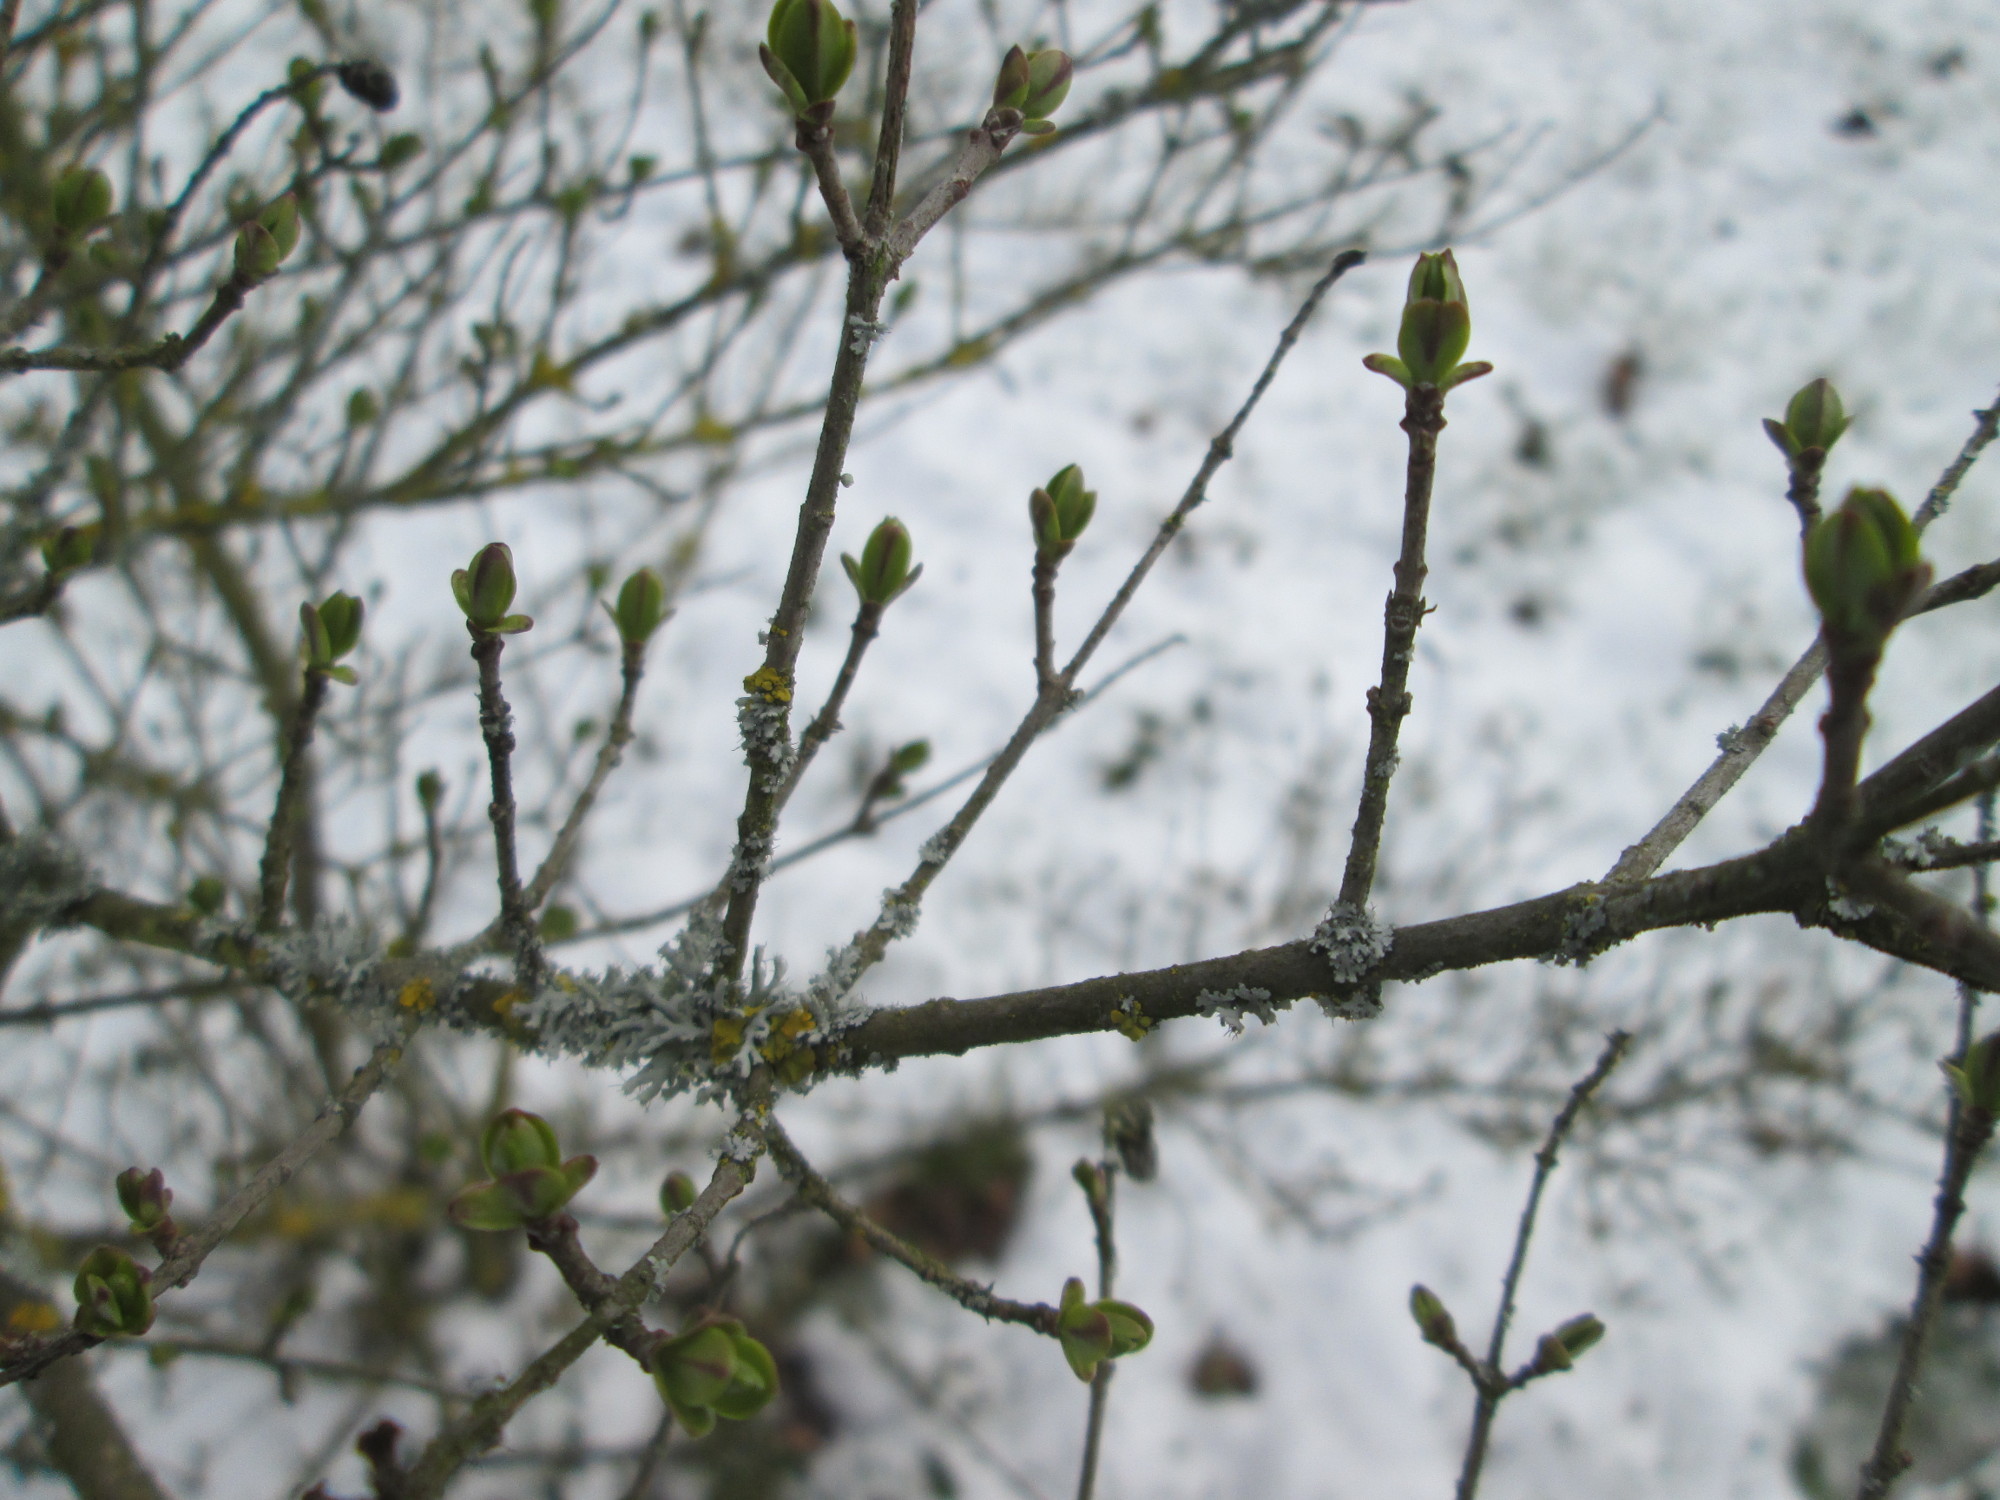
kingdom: Plantae
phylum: Tracheophyta
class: Magnoliopsida
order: Lamiales
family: Oleaceae
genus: Ligustrum
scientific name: Ligustrum vulgare
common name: Wild privet
